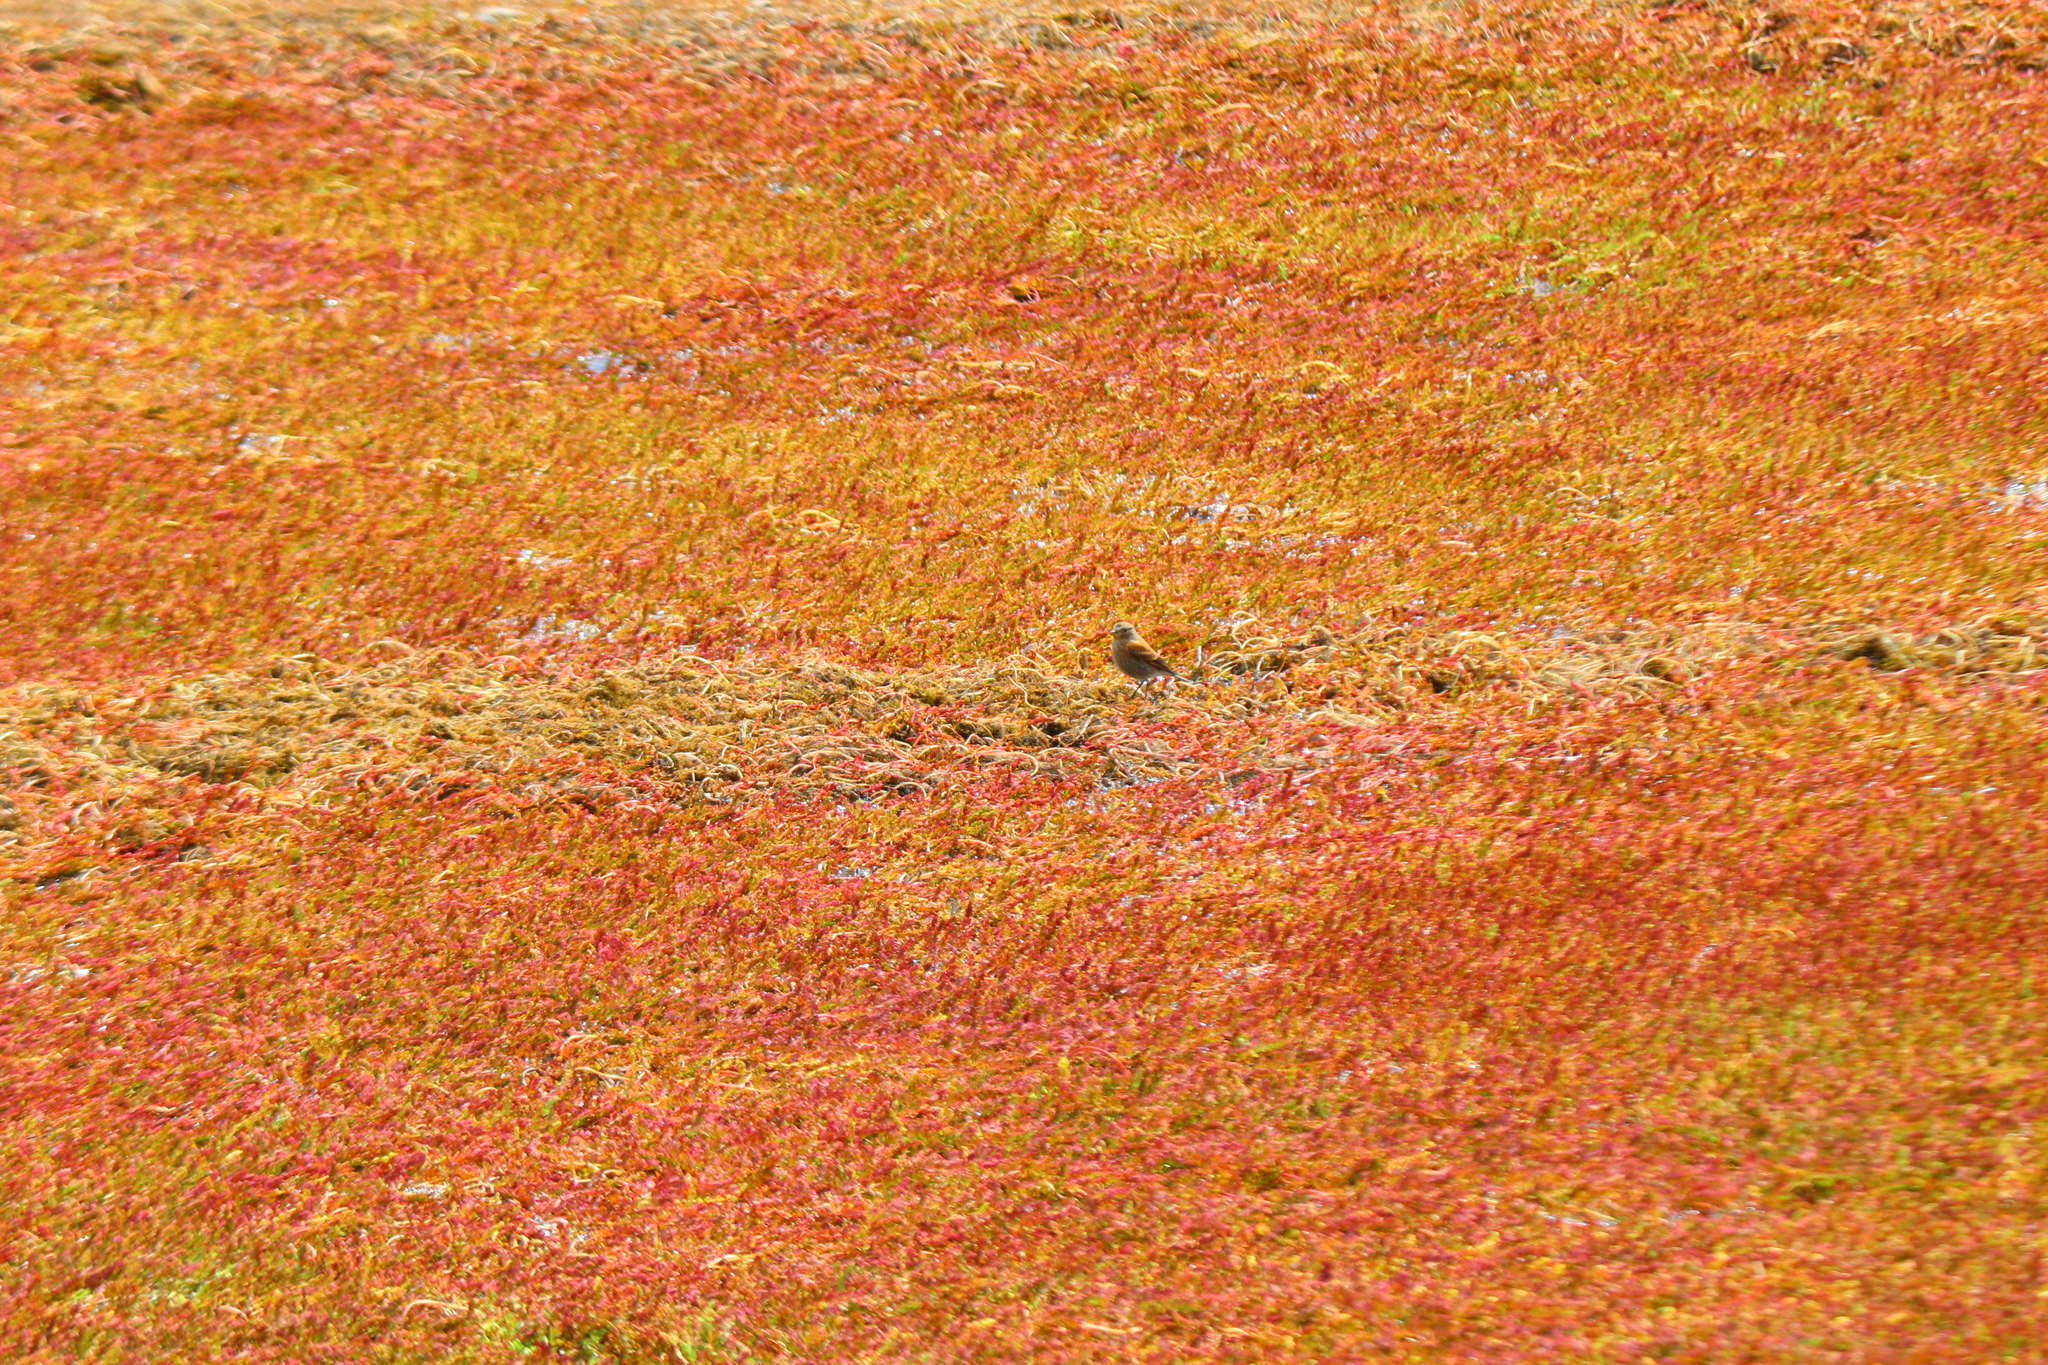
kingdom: Animalia
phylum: Chordata
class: Aves
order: Passeriformes
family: Tyrannidae
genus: Lessonia
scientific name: Lessonia rufa
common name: Austral negrito
